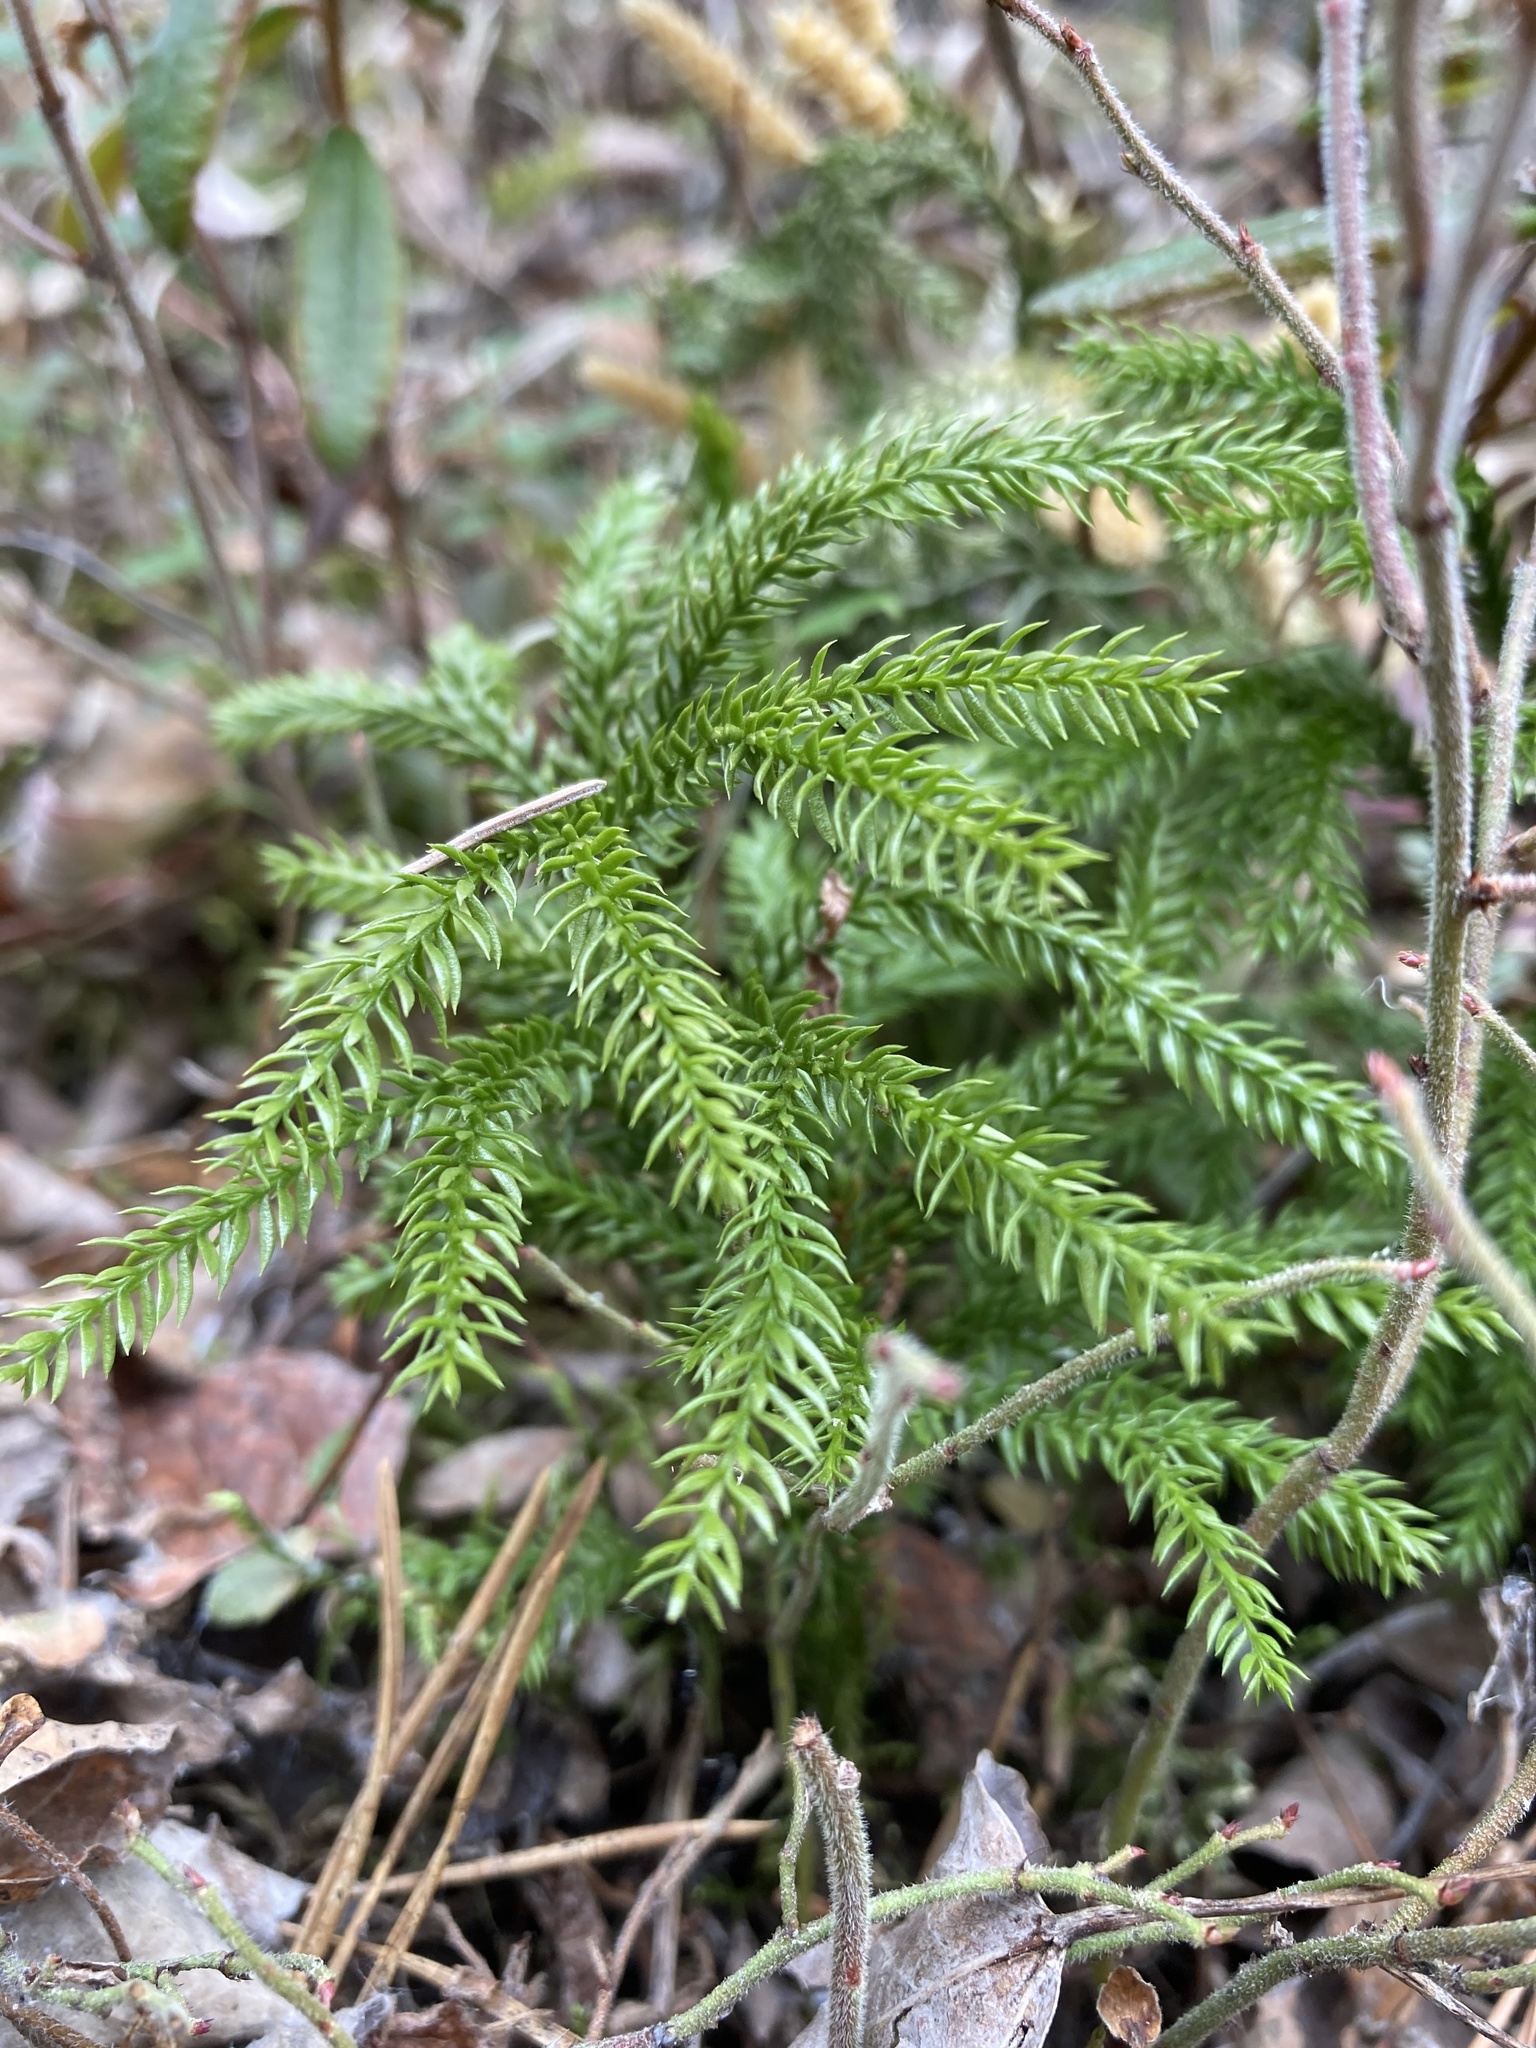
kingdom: Plantae
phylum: Tracheophyta
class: Lycopodiopsida
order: Lycopodiales
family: Lycopodiaceae
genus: Dendrolycopodium
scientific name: Dendrolycopodium dendroideum
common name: Northern tree-clubmoss
